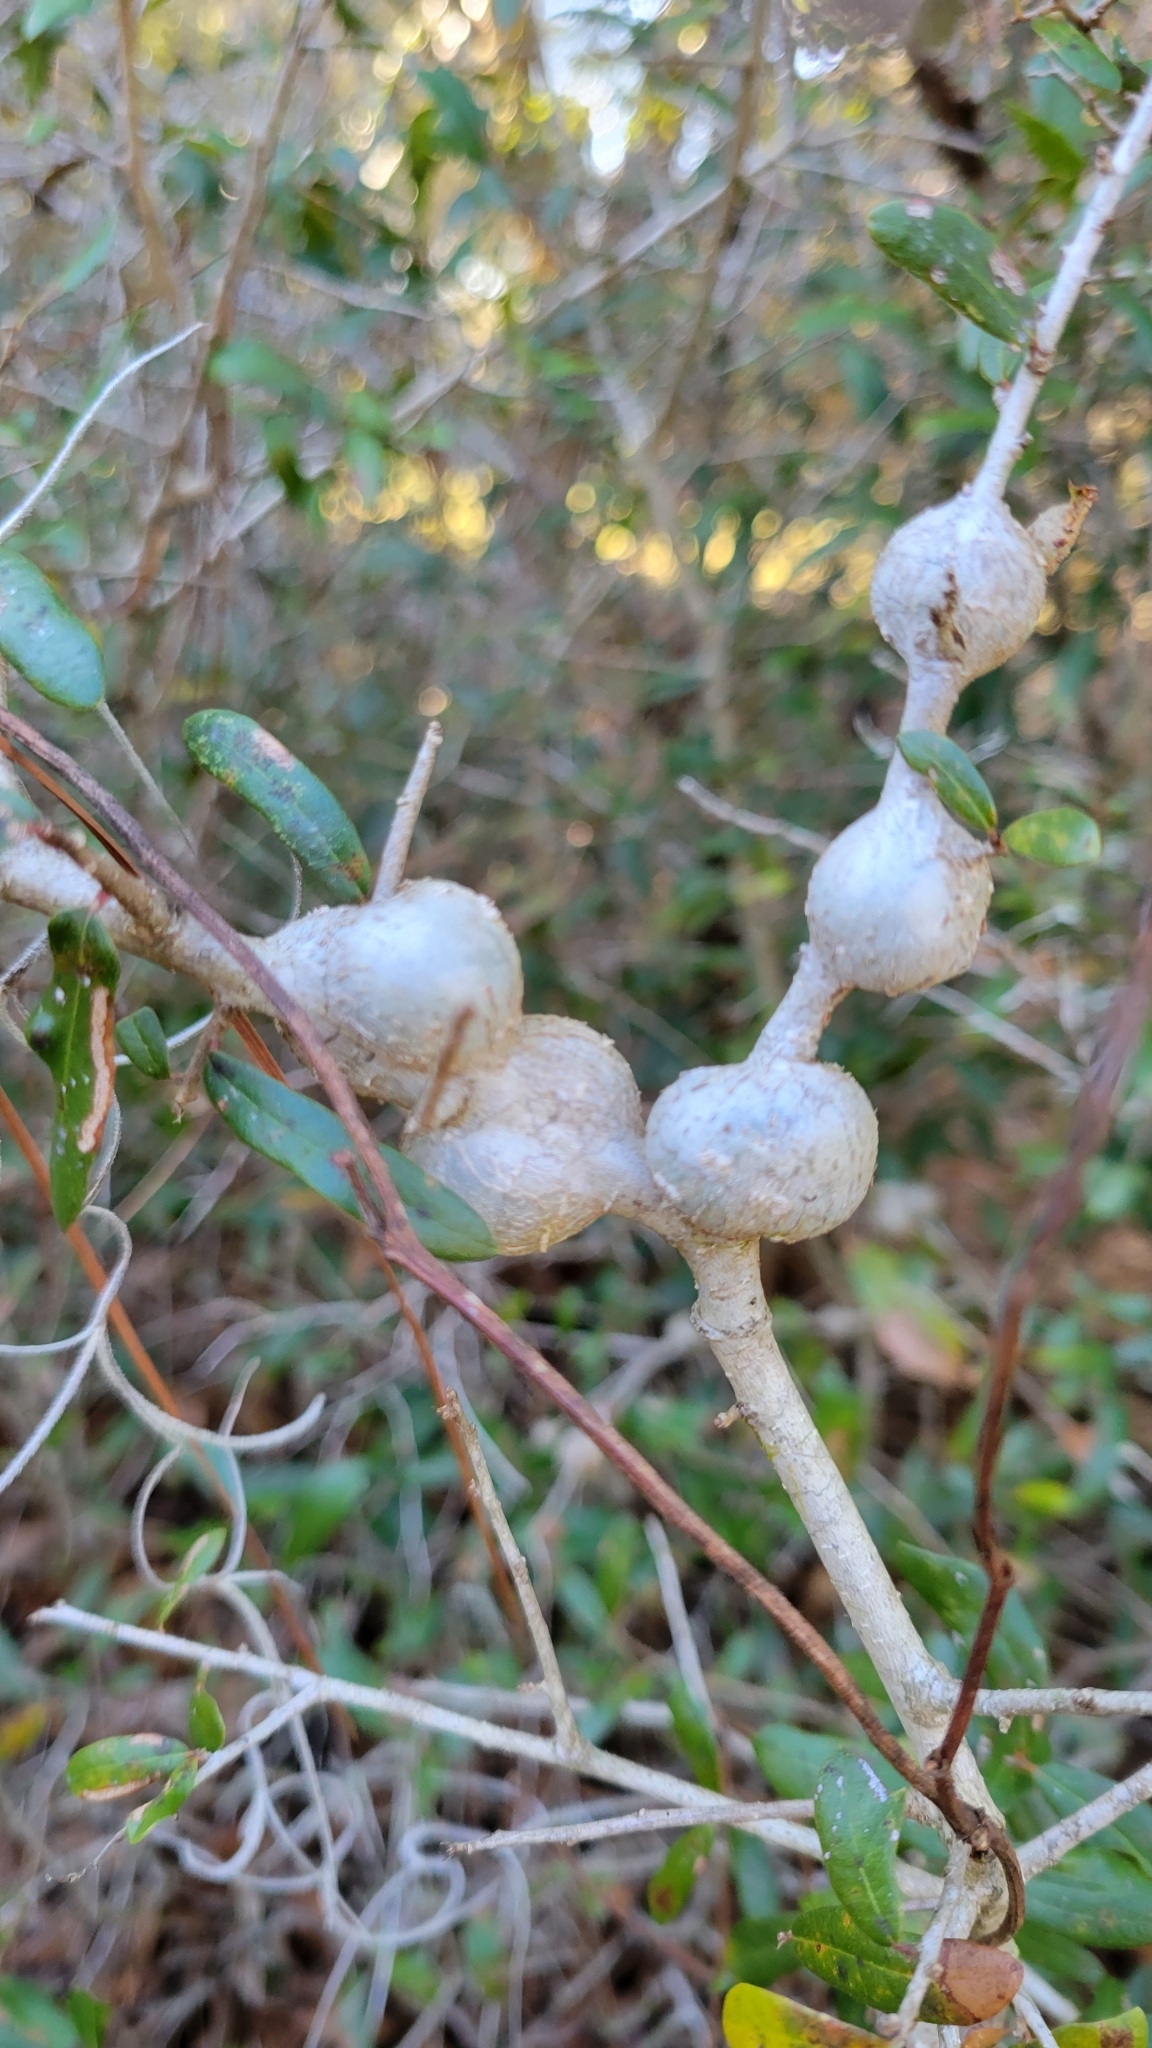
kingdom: Animalia
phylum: Arthropoda
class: Insecta
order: Hymenoptera
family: Cynipidae
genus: Callirhytis
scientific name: Callirhytis
